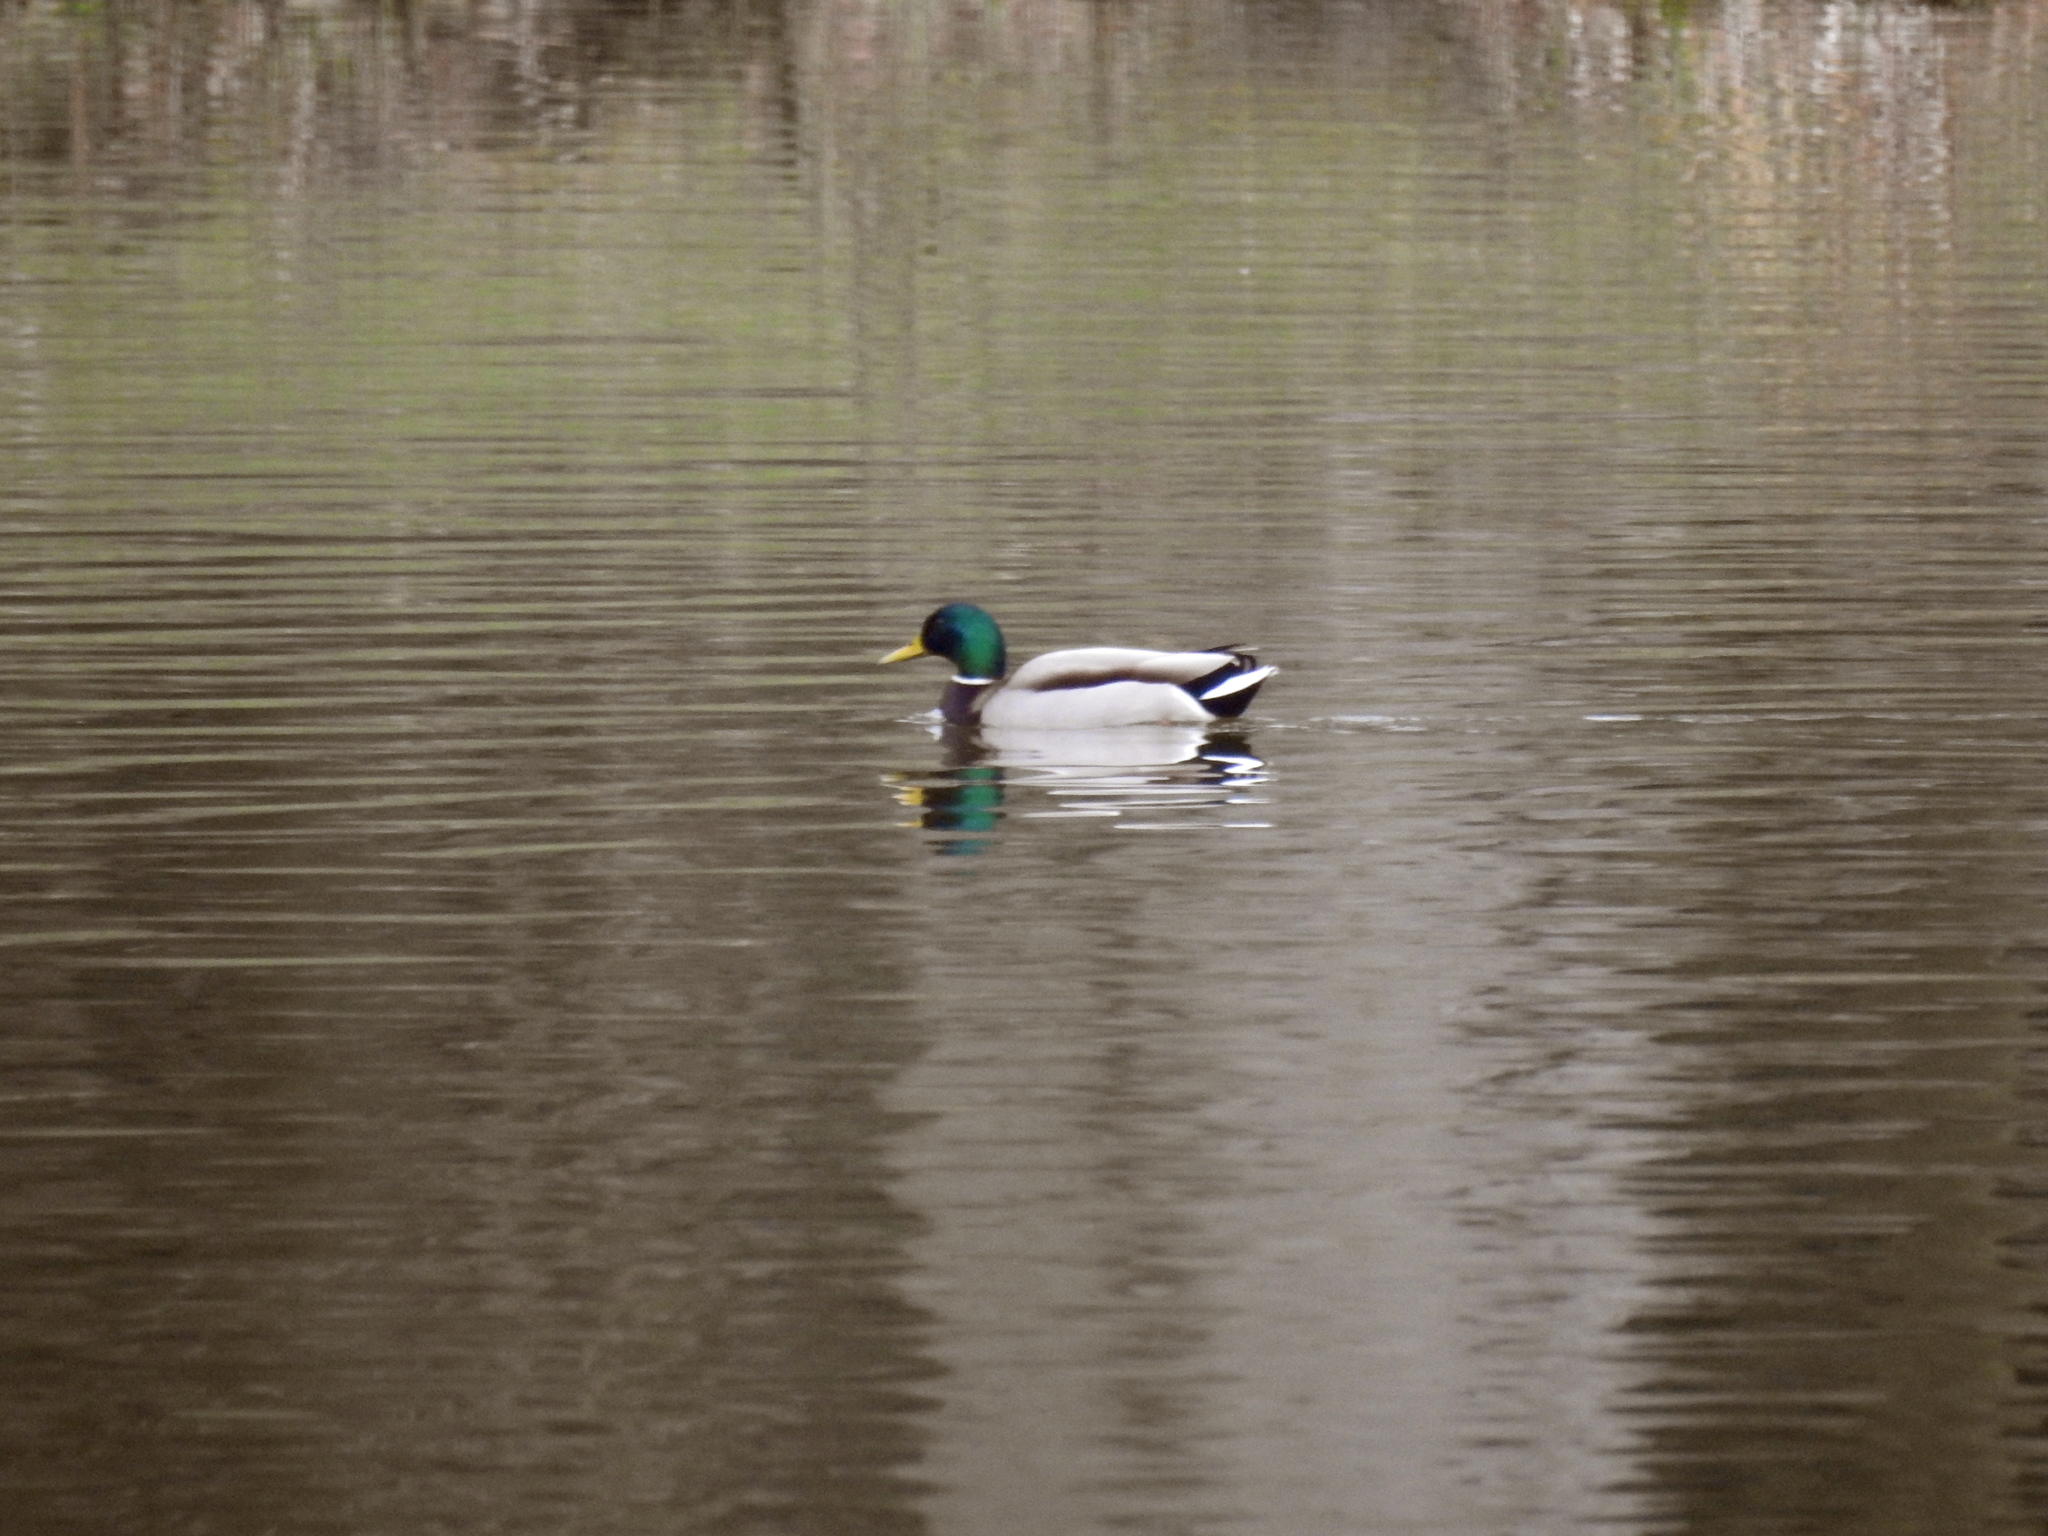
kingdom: Animalia
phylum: Chordata
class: Aves
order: Anseriformes
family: Anatidae
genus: Anas
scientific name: Anas platyrhynchos
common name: Mallard
